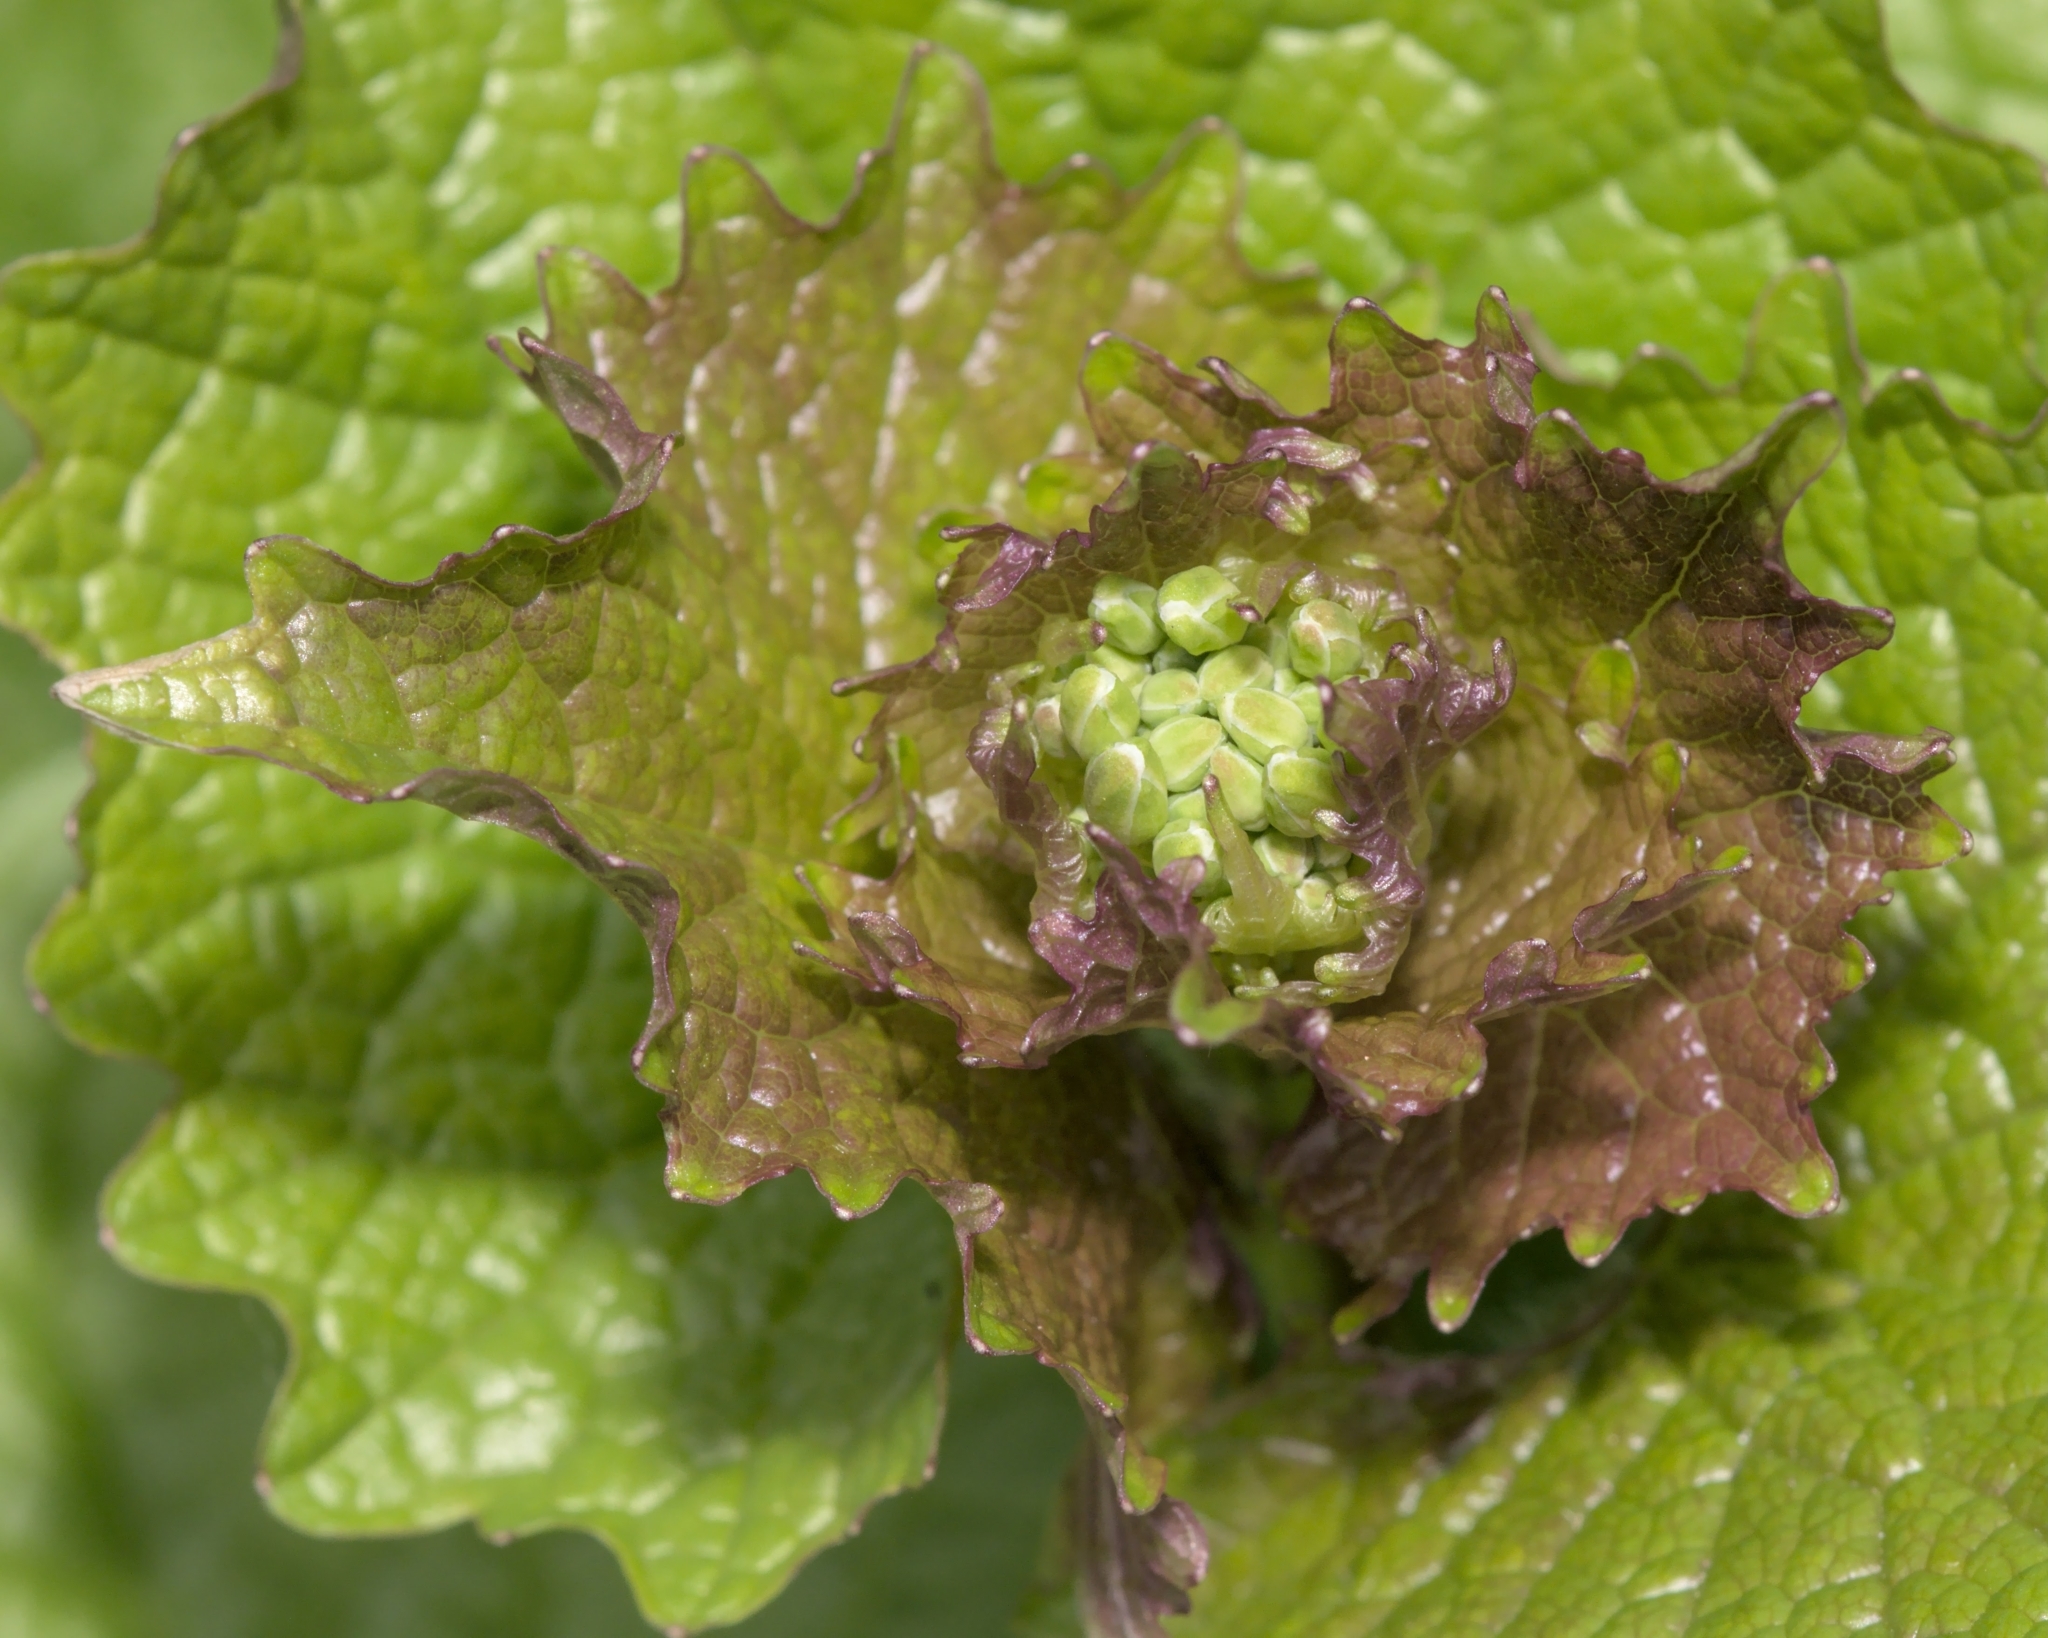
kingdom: Plantae
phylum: Tracheophyta
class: Magnoliopsida
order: Brassicales
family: Brassicaceae
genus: Alliaria
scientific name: Alliaria petiolata
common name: Garlic mustard
